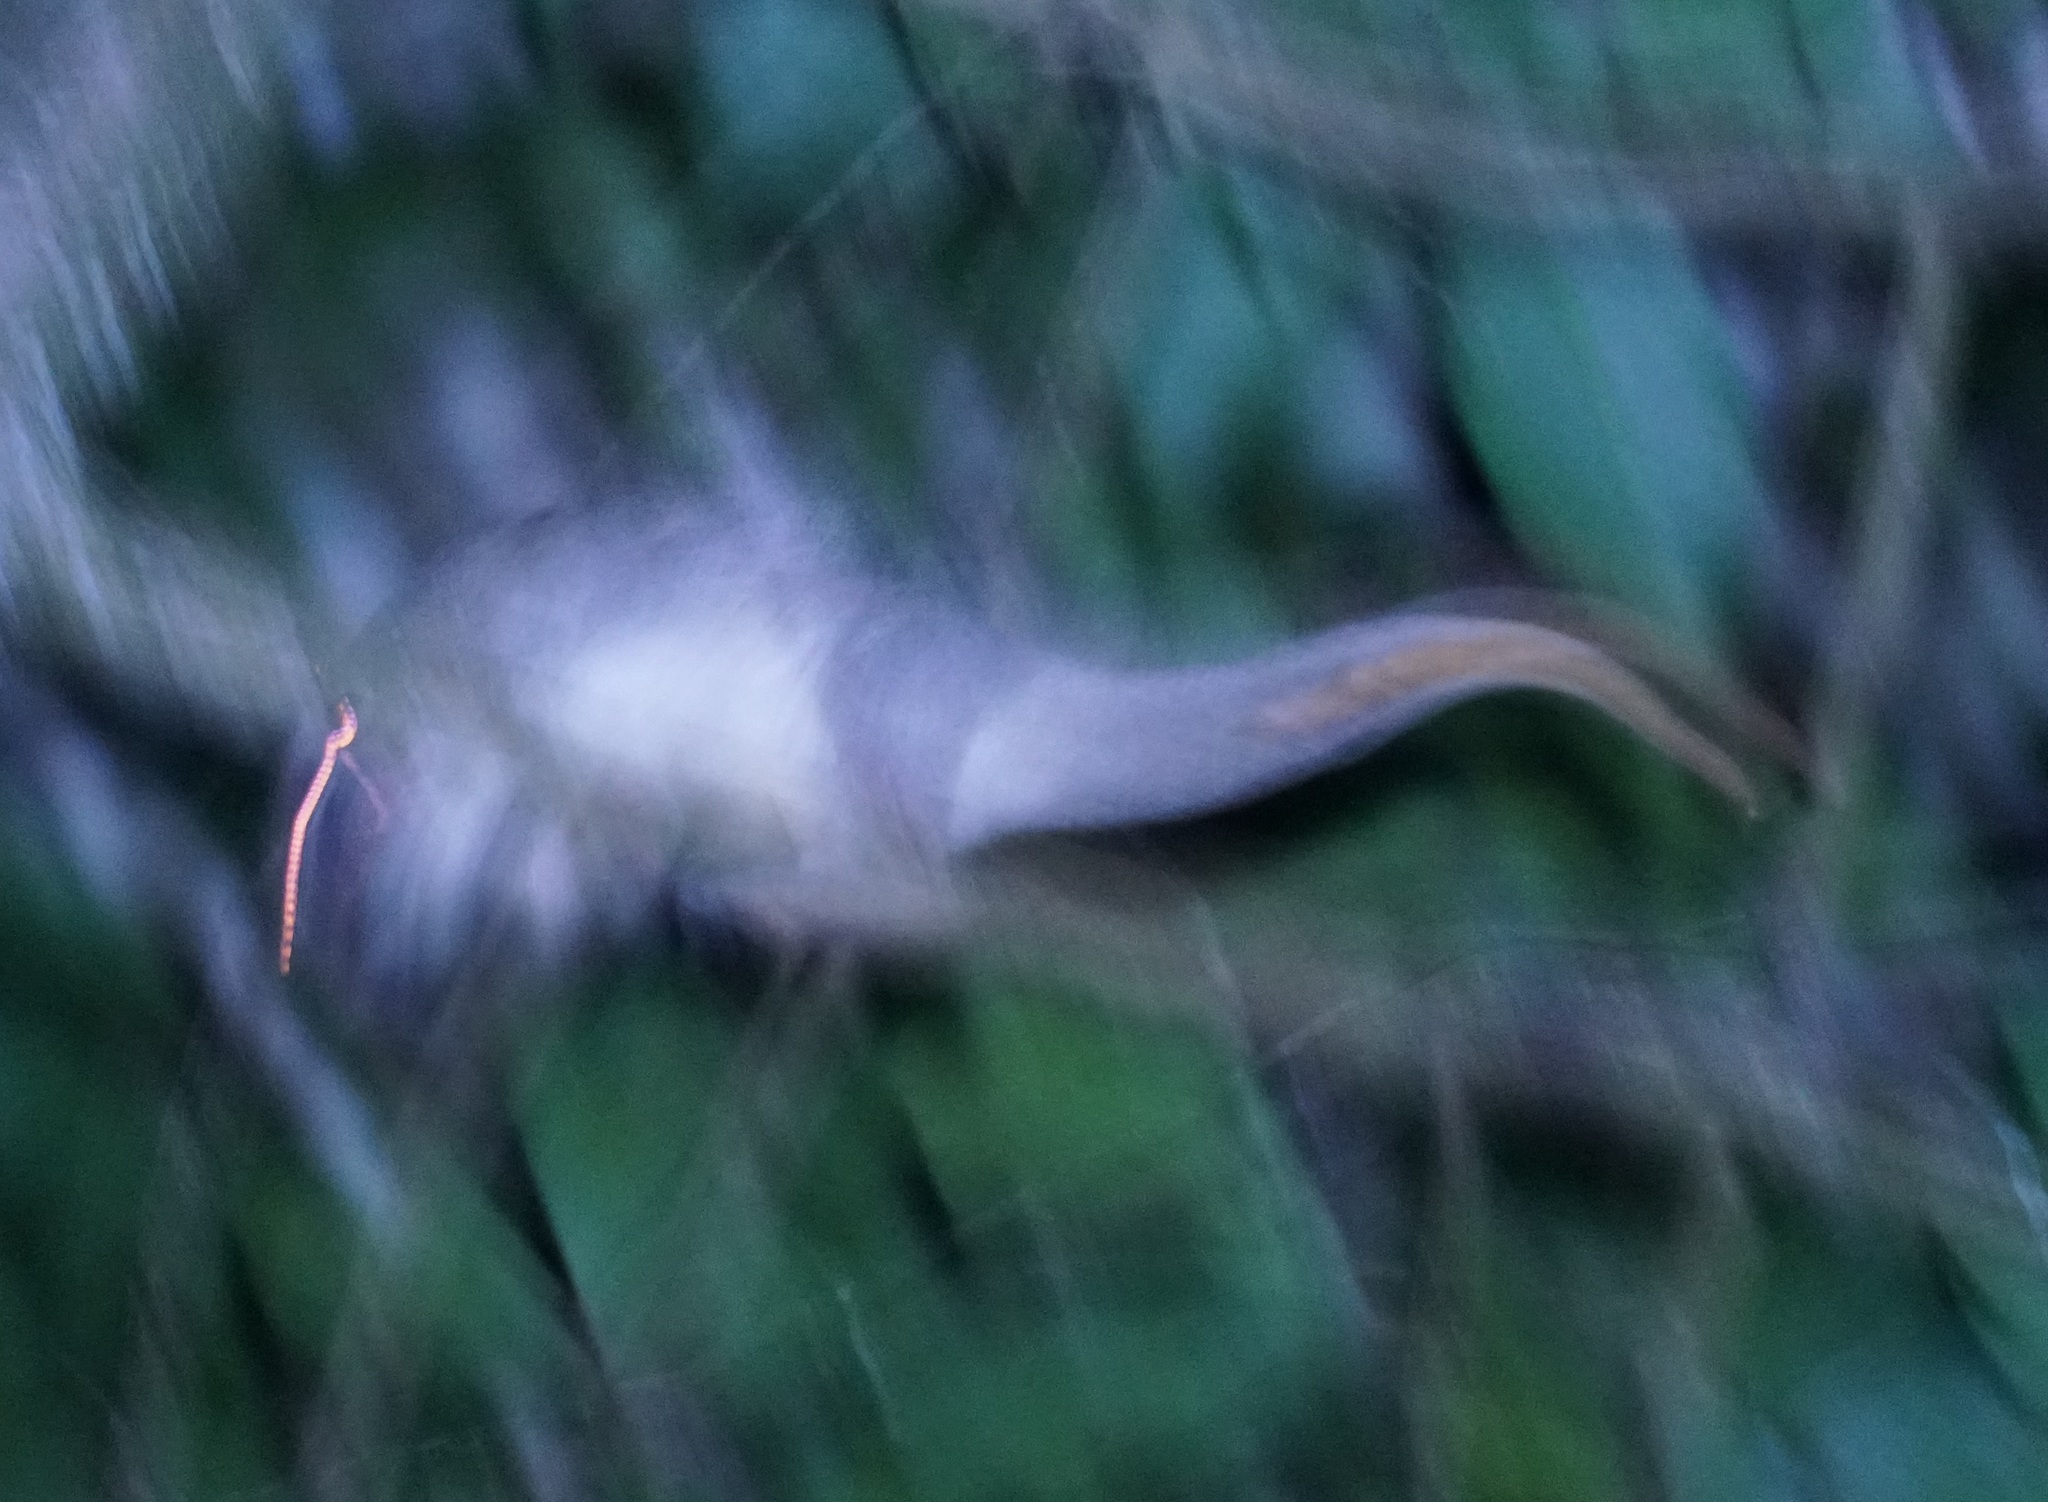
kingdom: Animalia
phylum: Chordata
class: Mammalia
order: Diprotodontia
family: Pseudocheiridae
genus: Pseudochirops
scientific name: Pseudochirops archeri
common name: Green ringtail
